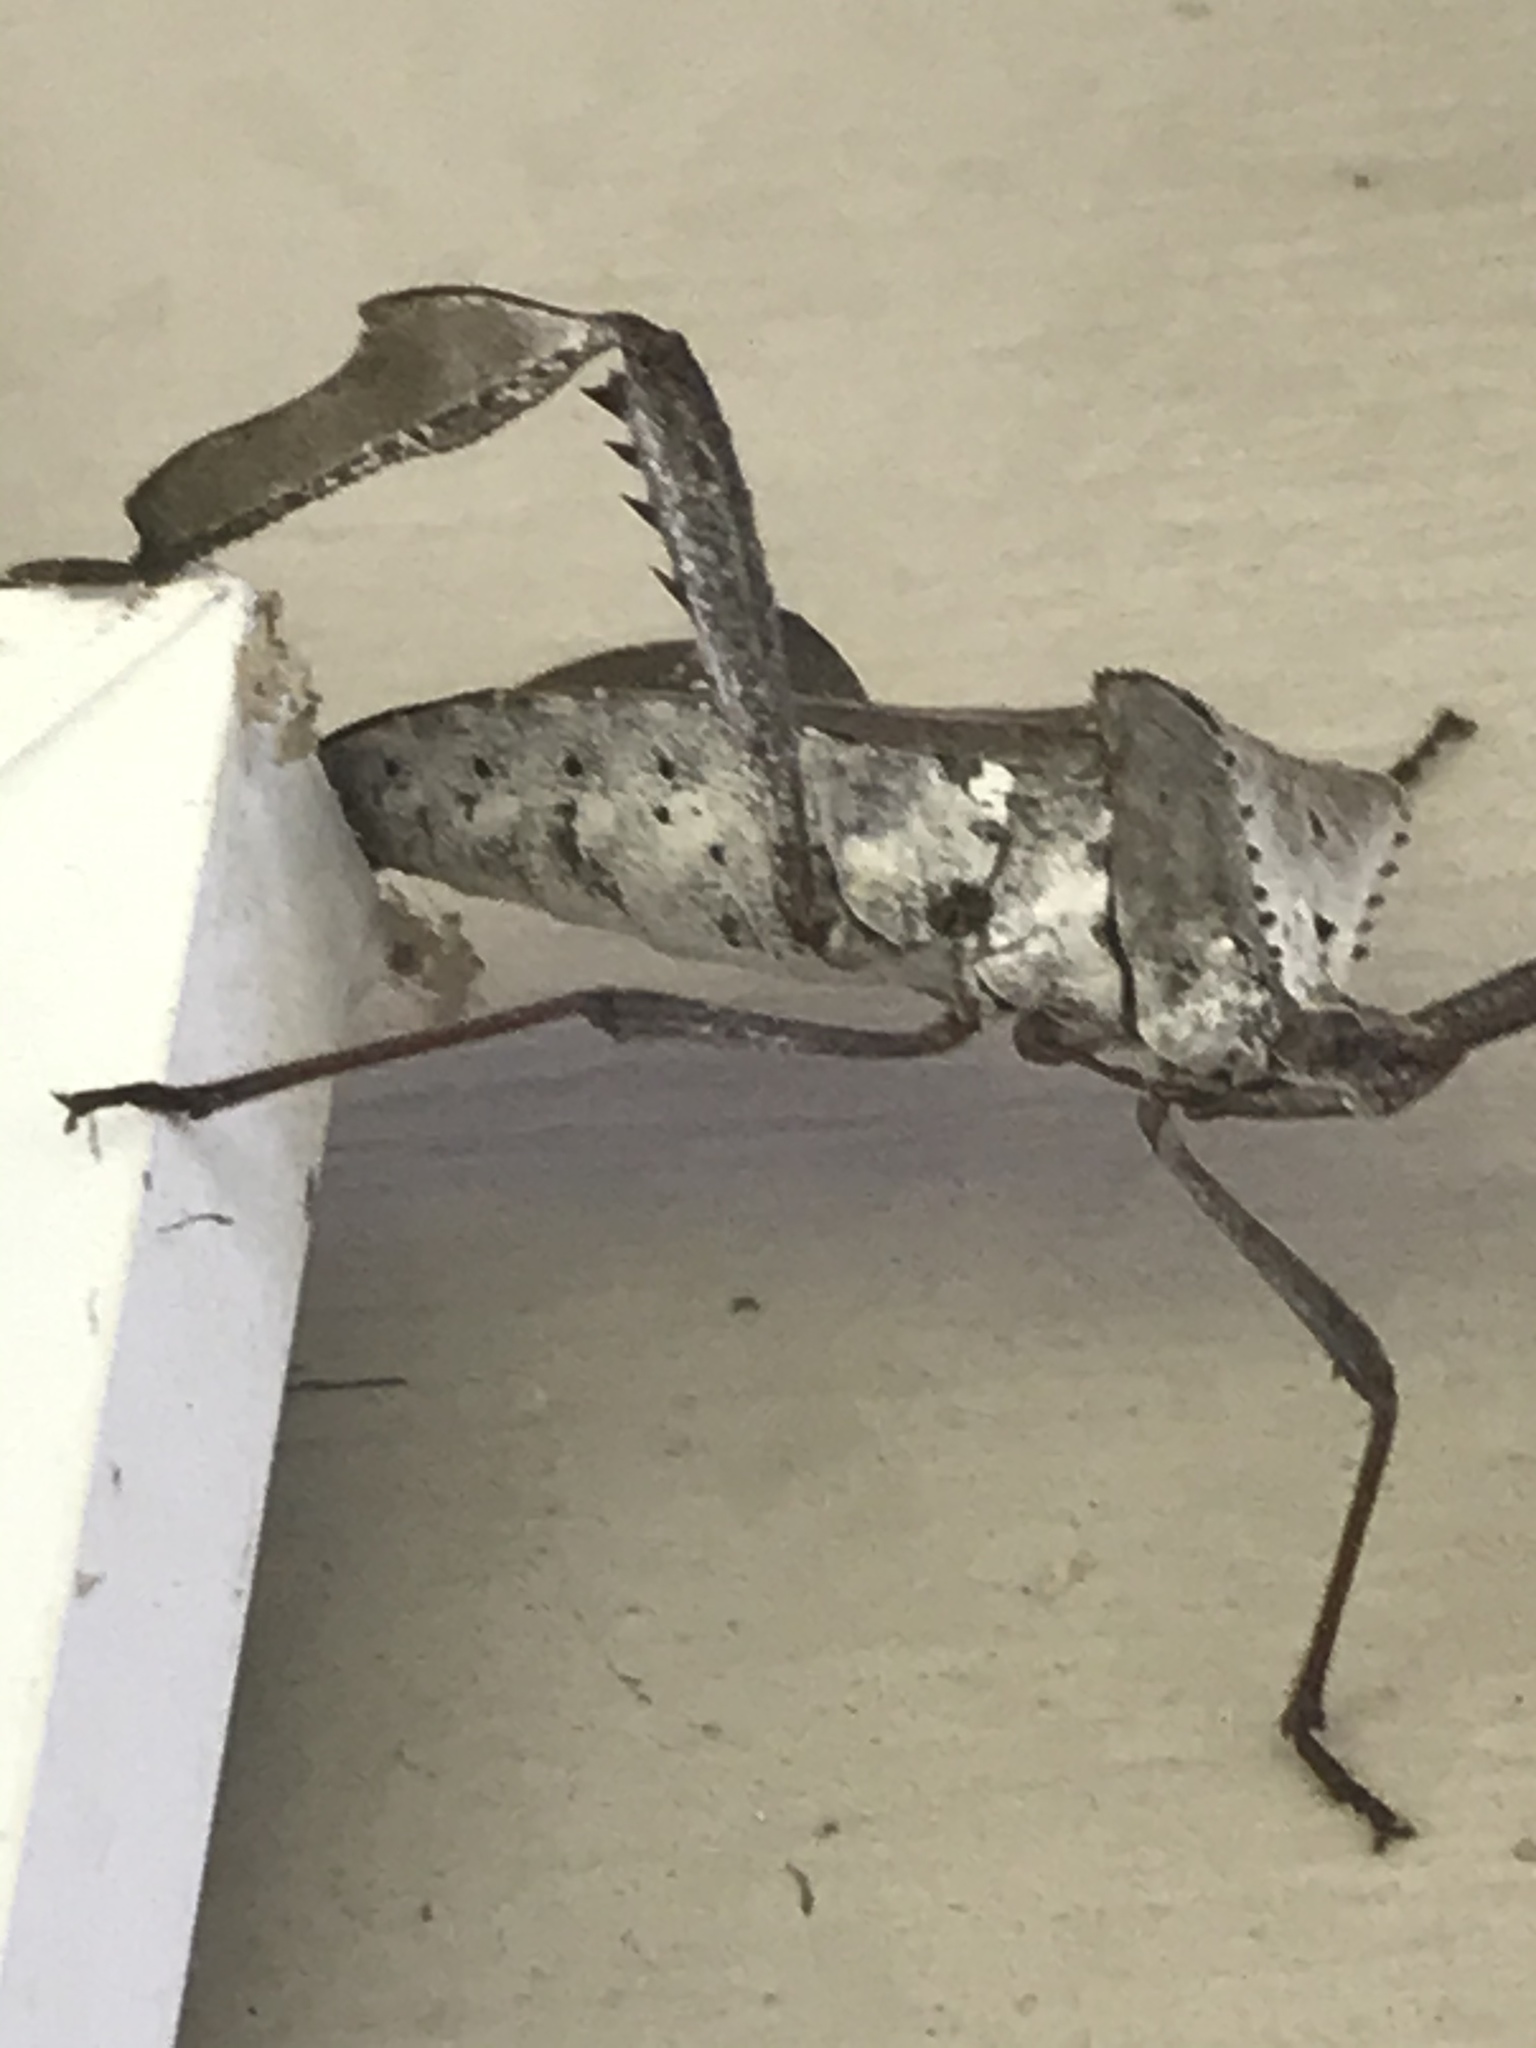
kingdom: Animalia
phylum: Arthropoda
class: Insecta
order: Hemiptera
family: Coreidae
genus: Acanthocephala
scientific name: Acanthocephala declivis
